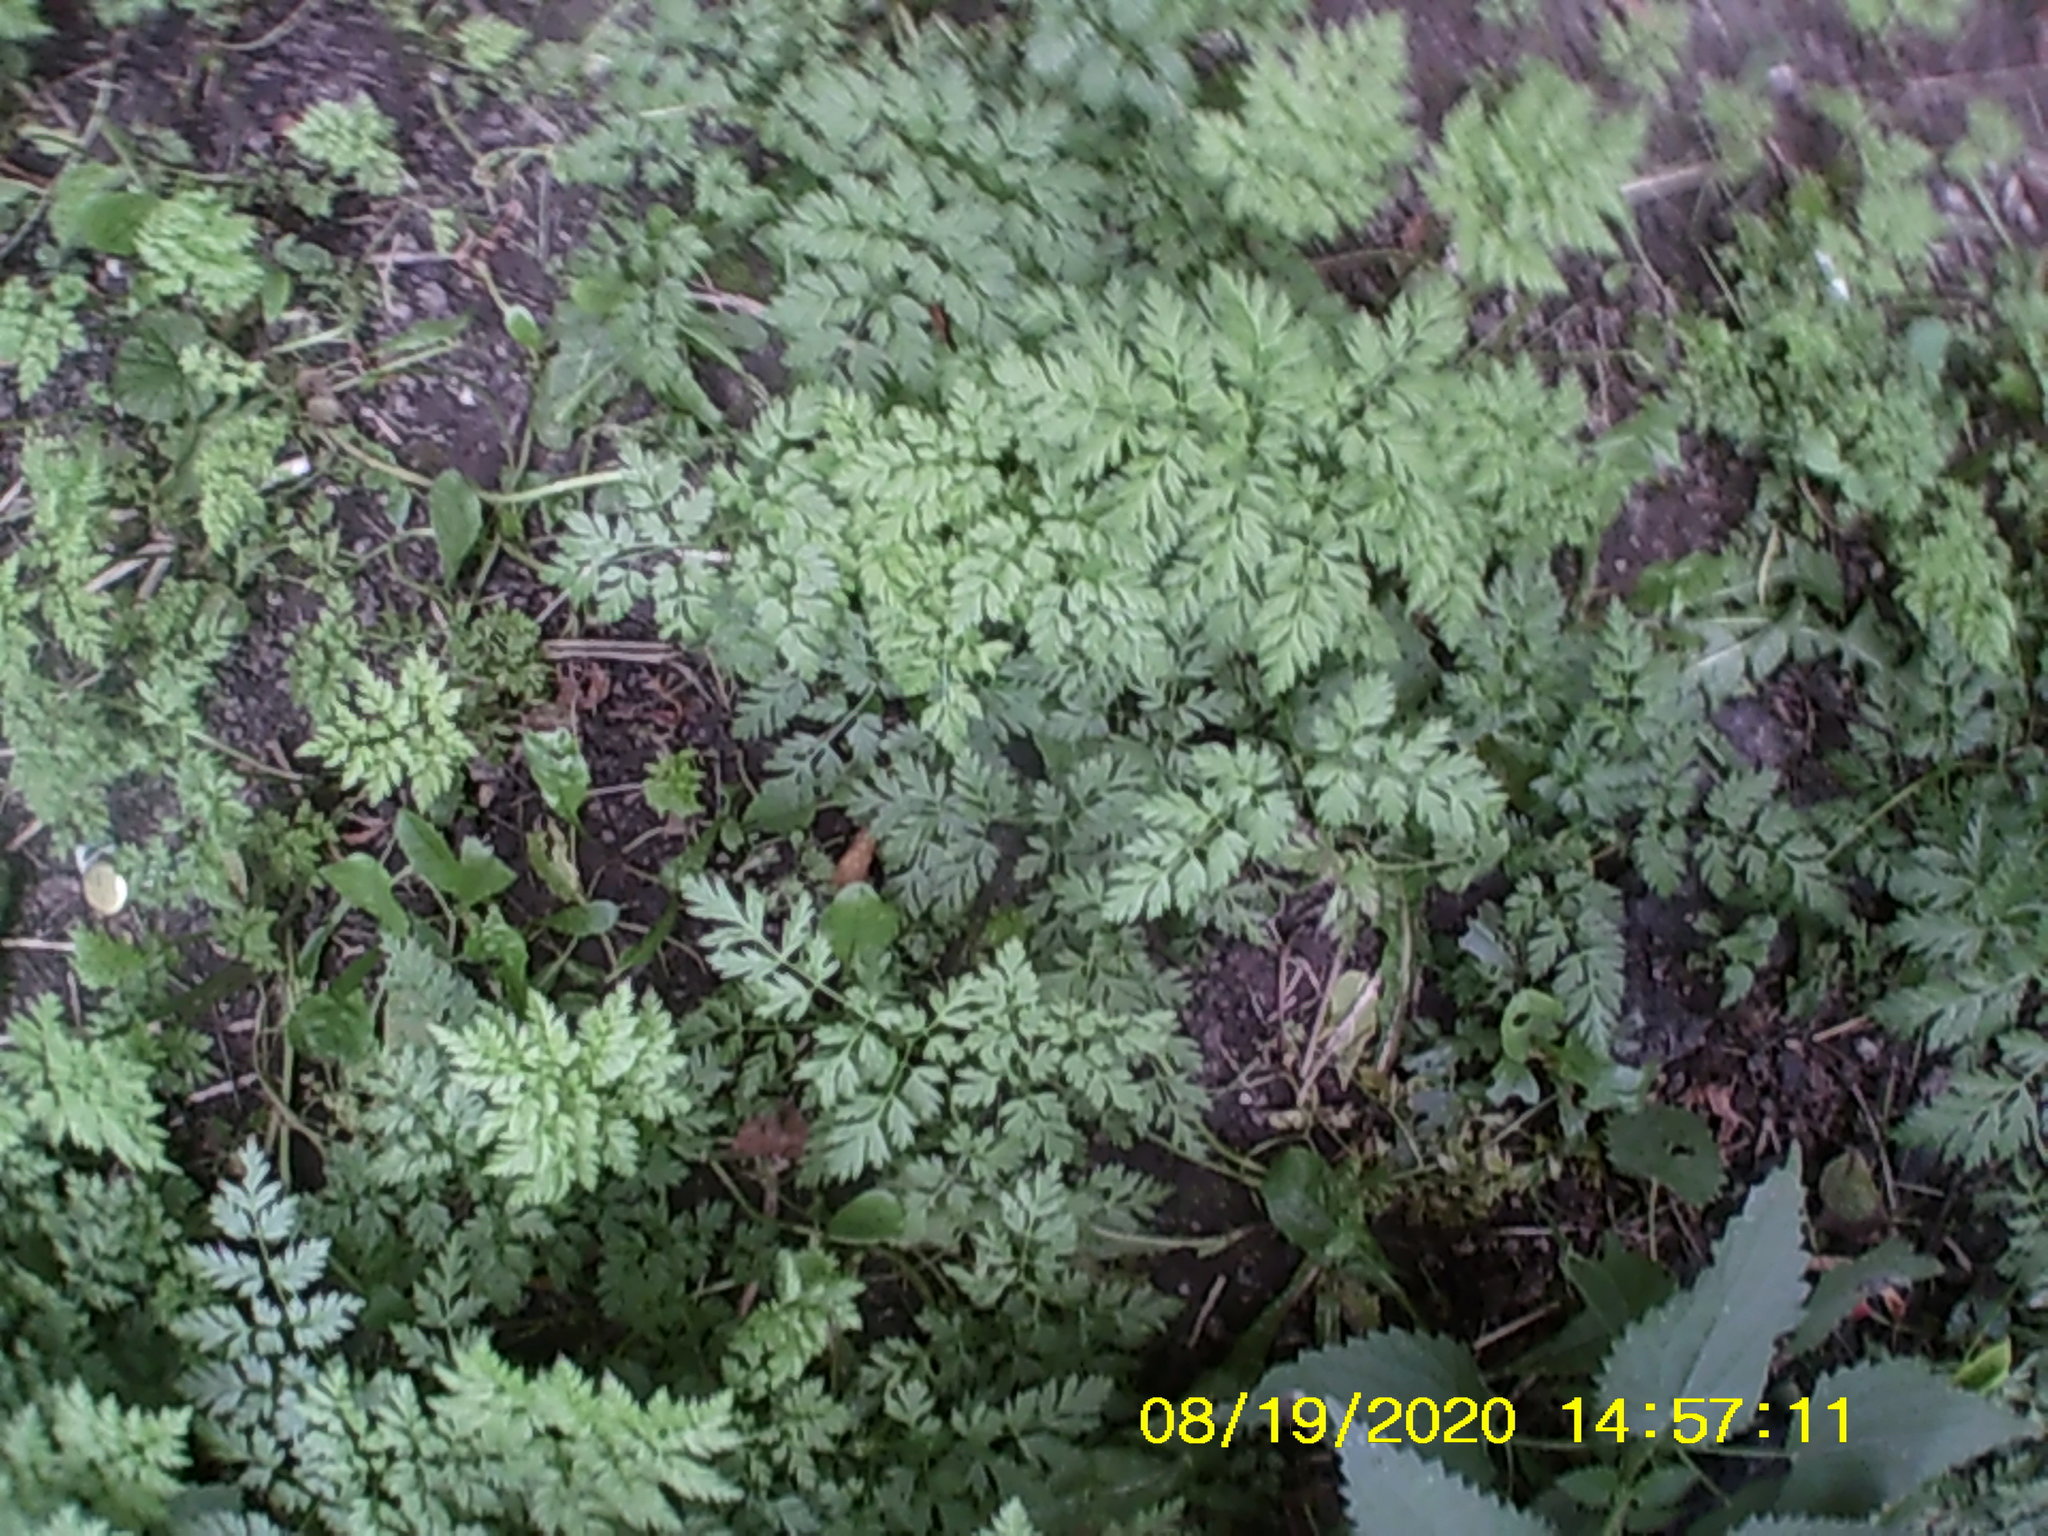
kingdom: Plantae
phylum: Tracheophyta
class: Magnoliopsida
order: Apiales
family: Apiaceae
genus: Anthriscus
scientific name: Anthriscus sylvestris
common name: Cow parsley
